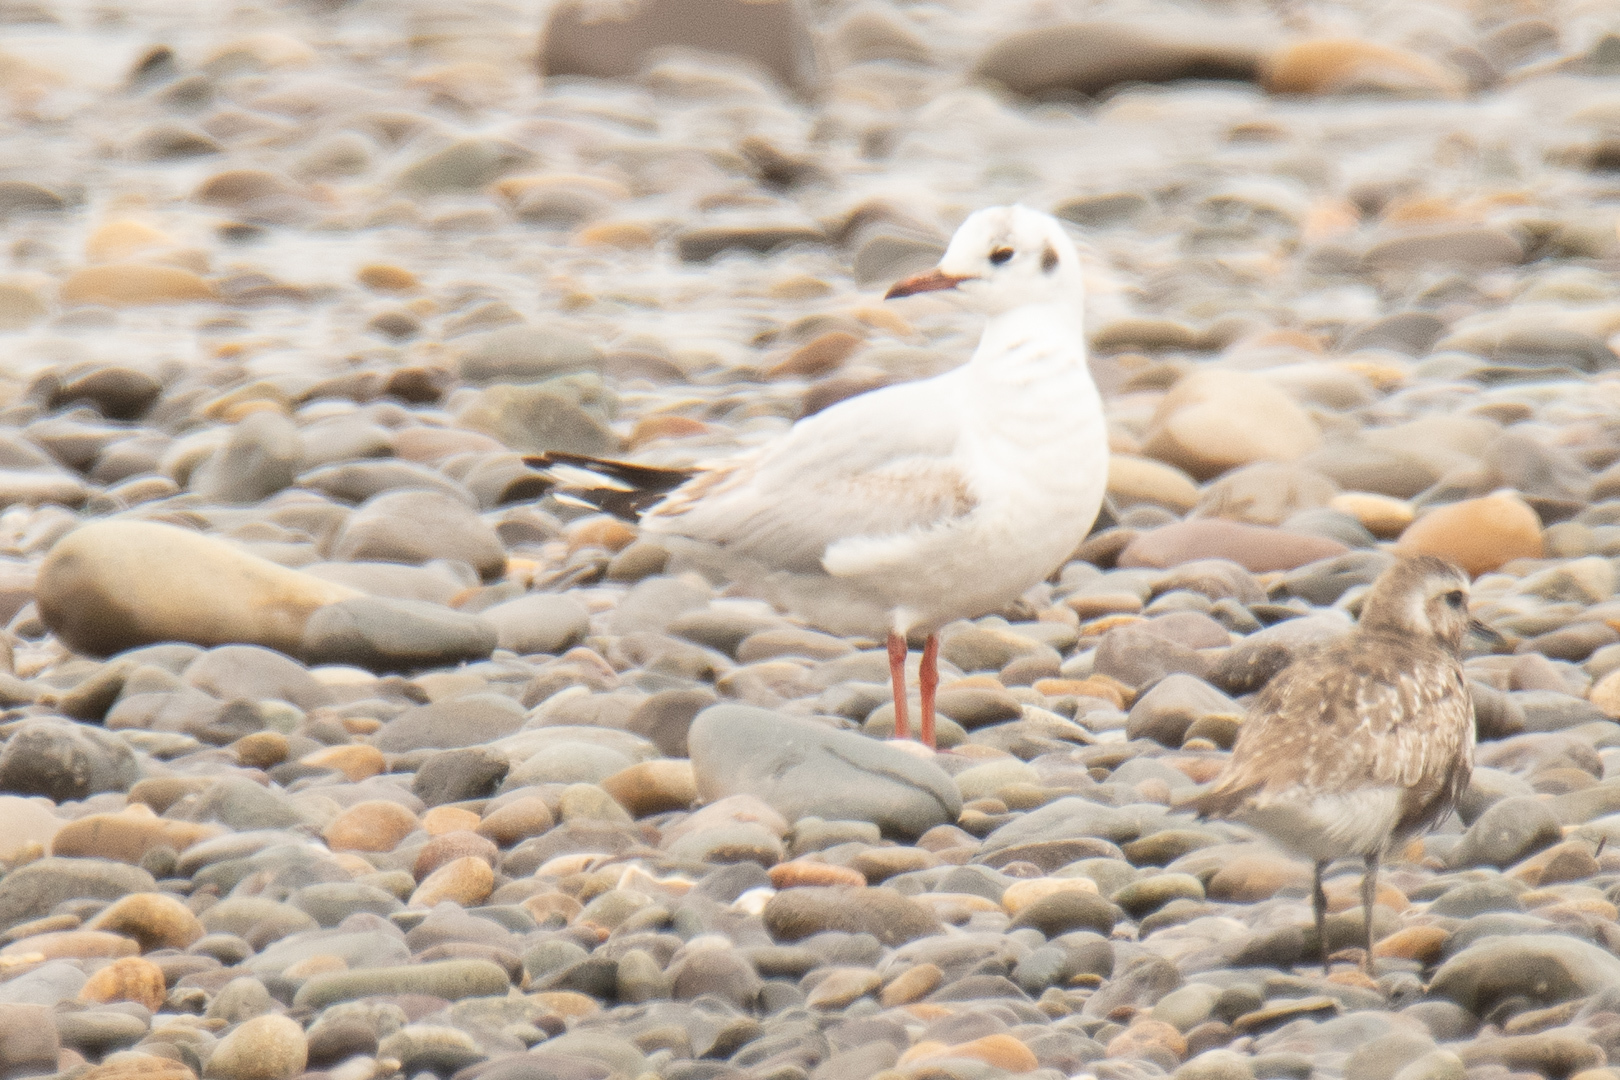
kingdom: Animalia
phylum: Chordata
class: Aves
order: Charadriiformes
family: Laridae
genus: Chroicocephalus
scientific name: Chroicocephalus maculipennis
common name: Brown-hooded gull
